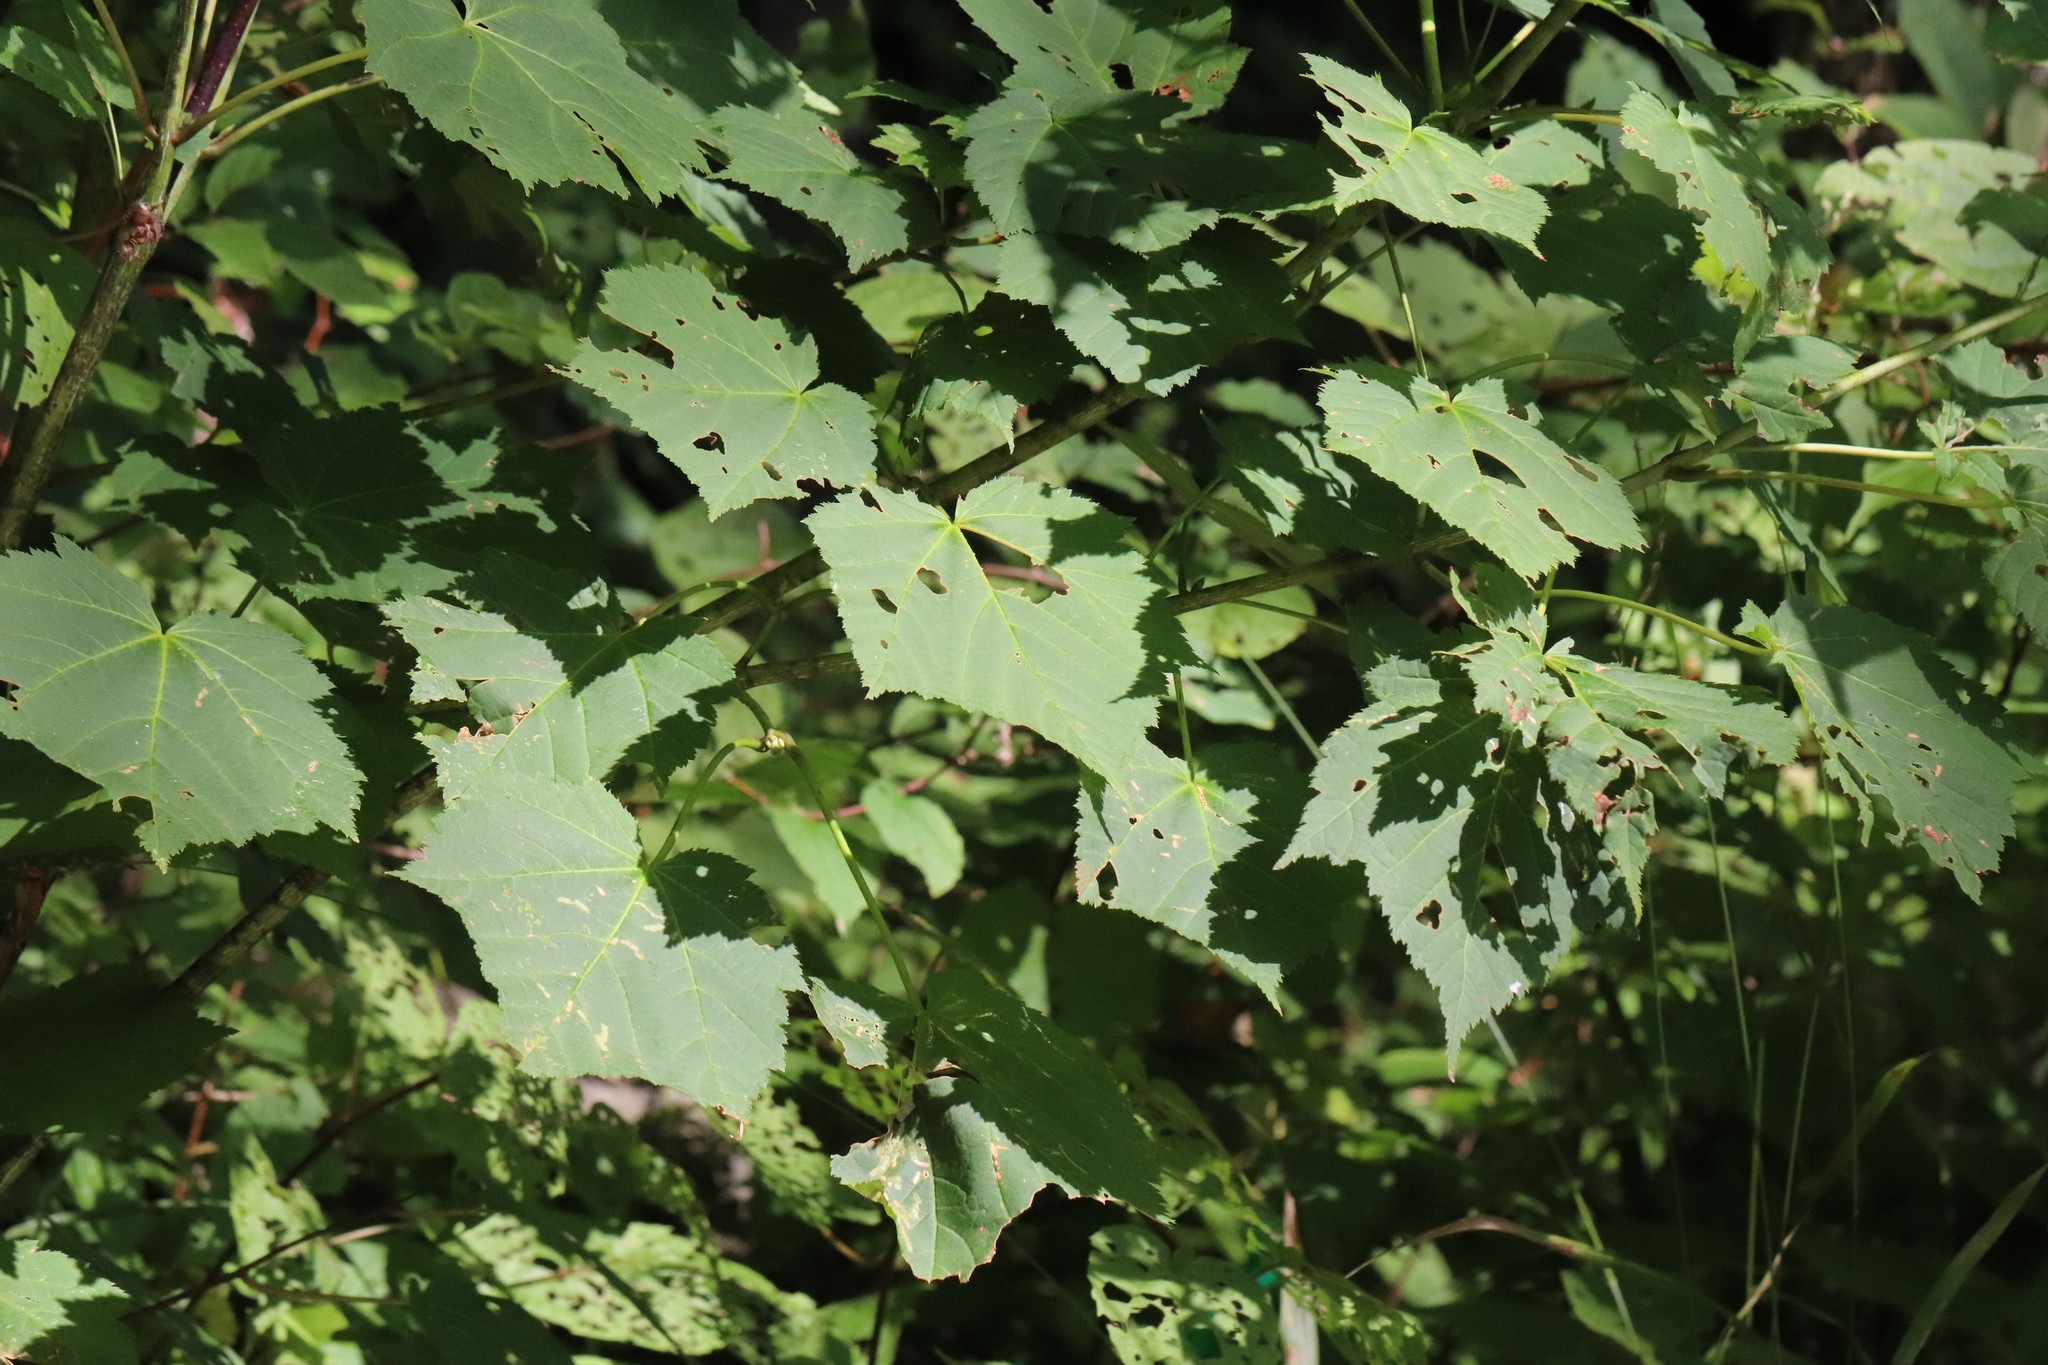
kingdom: Plantae
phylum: Tracheophyta
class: Magnoliopsida
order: Sapindales
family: Sapindaceae
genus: Acer
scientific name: Acer tegmentosum
